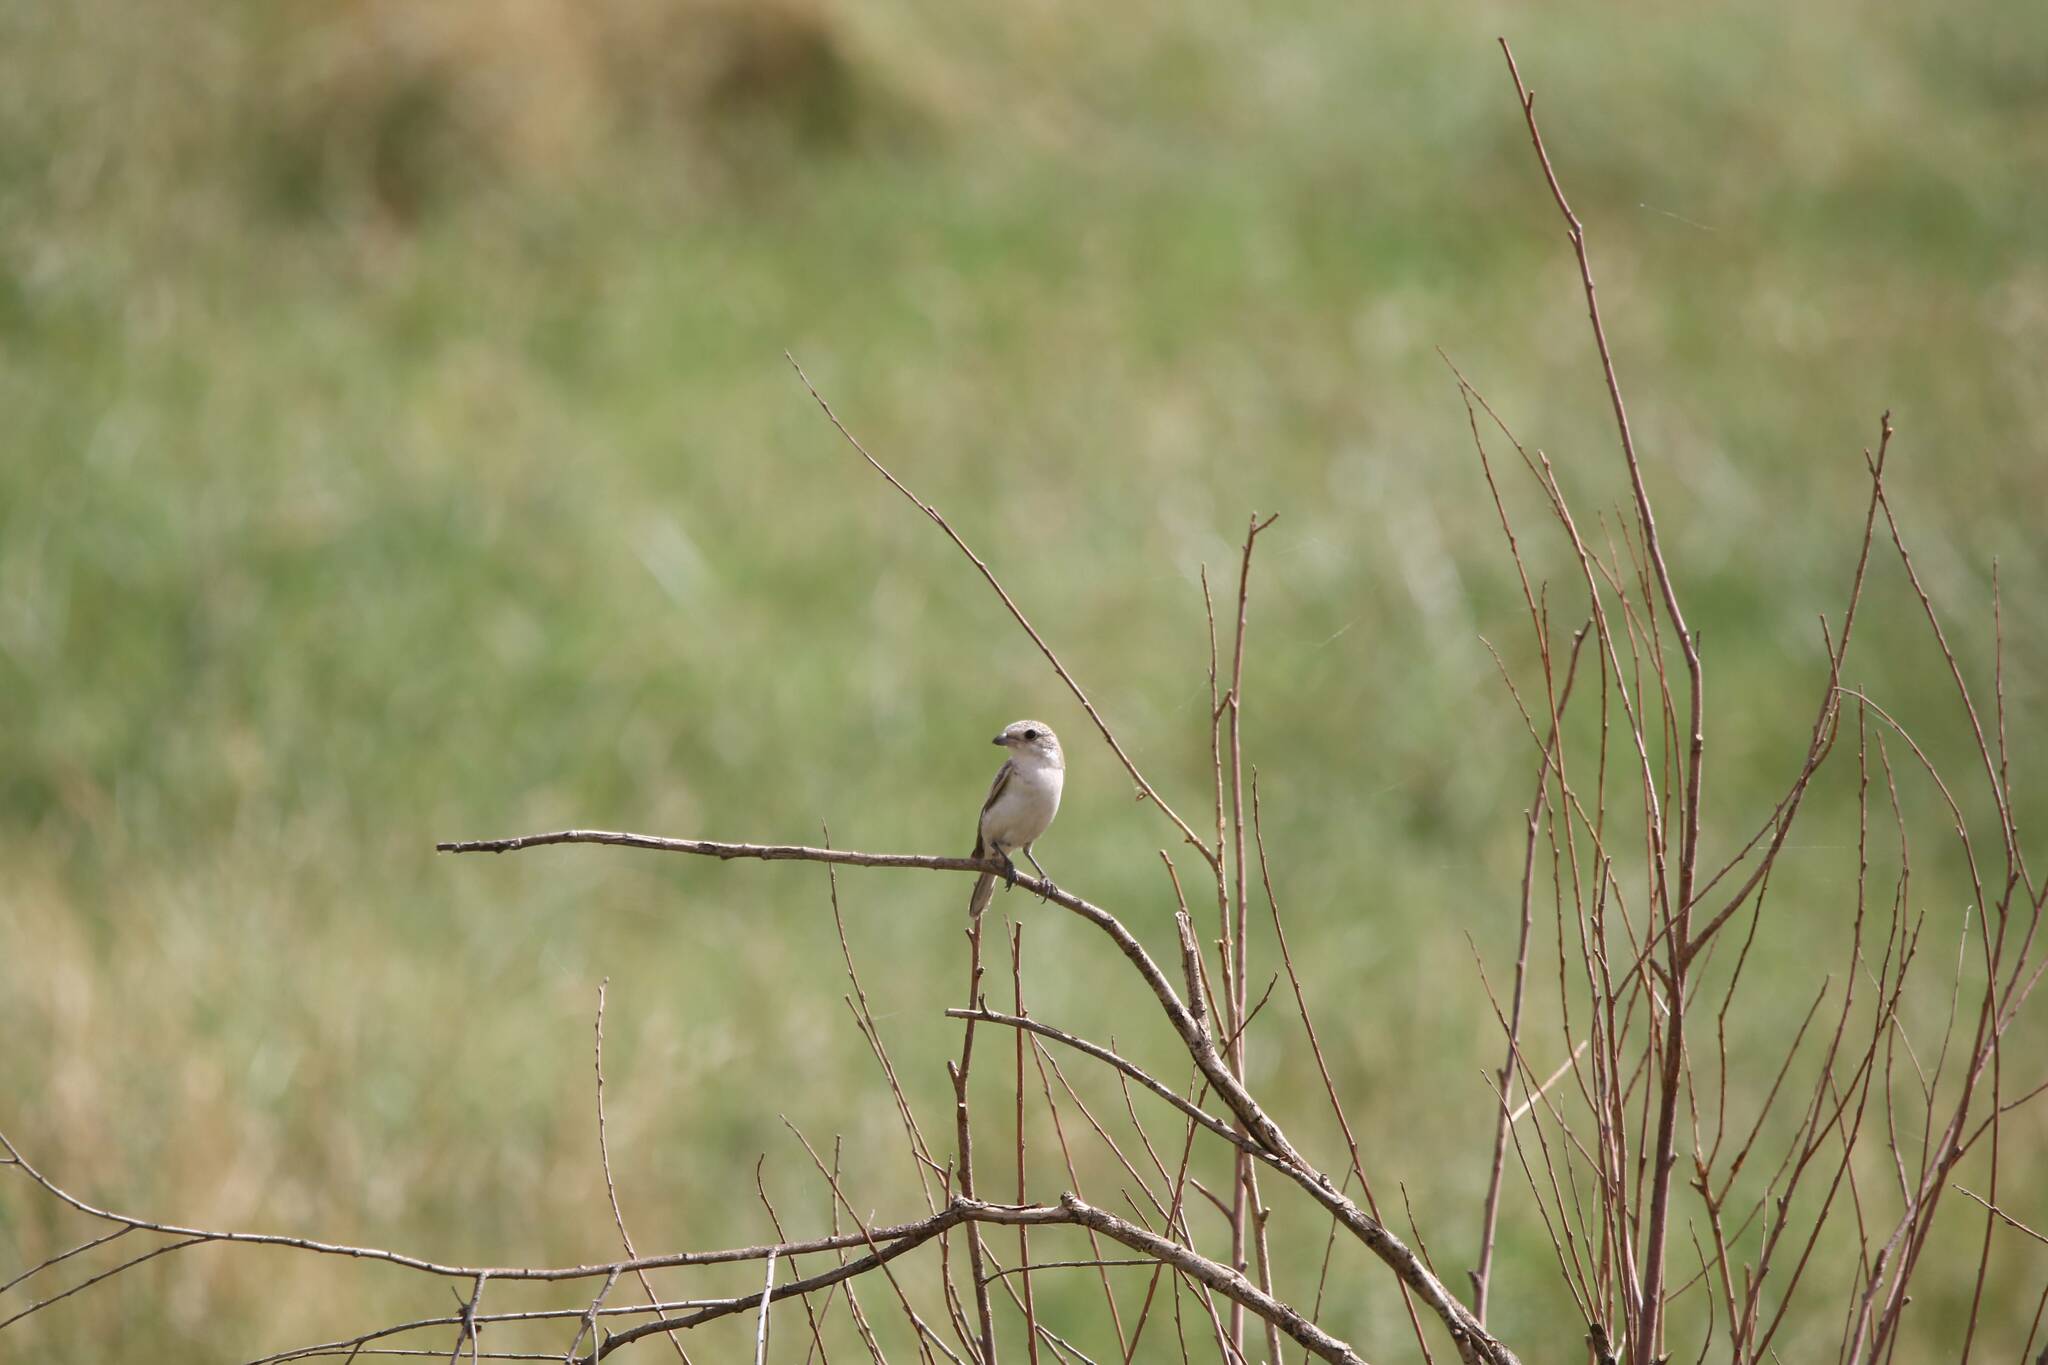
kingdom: Animalia
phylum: Chordata
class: Aves
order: Passeriformes
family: Laniidae
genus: Lanius
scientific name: Lanius senator
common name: Woodchat shrike
